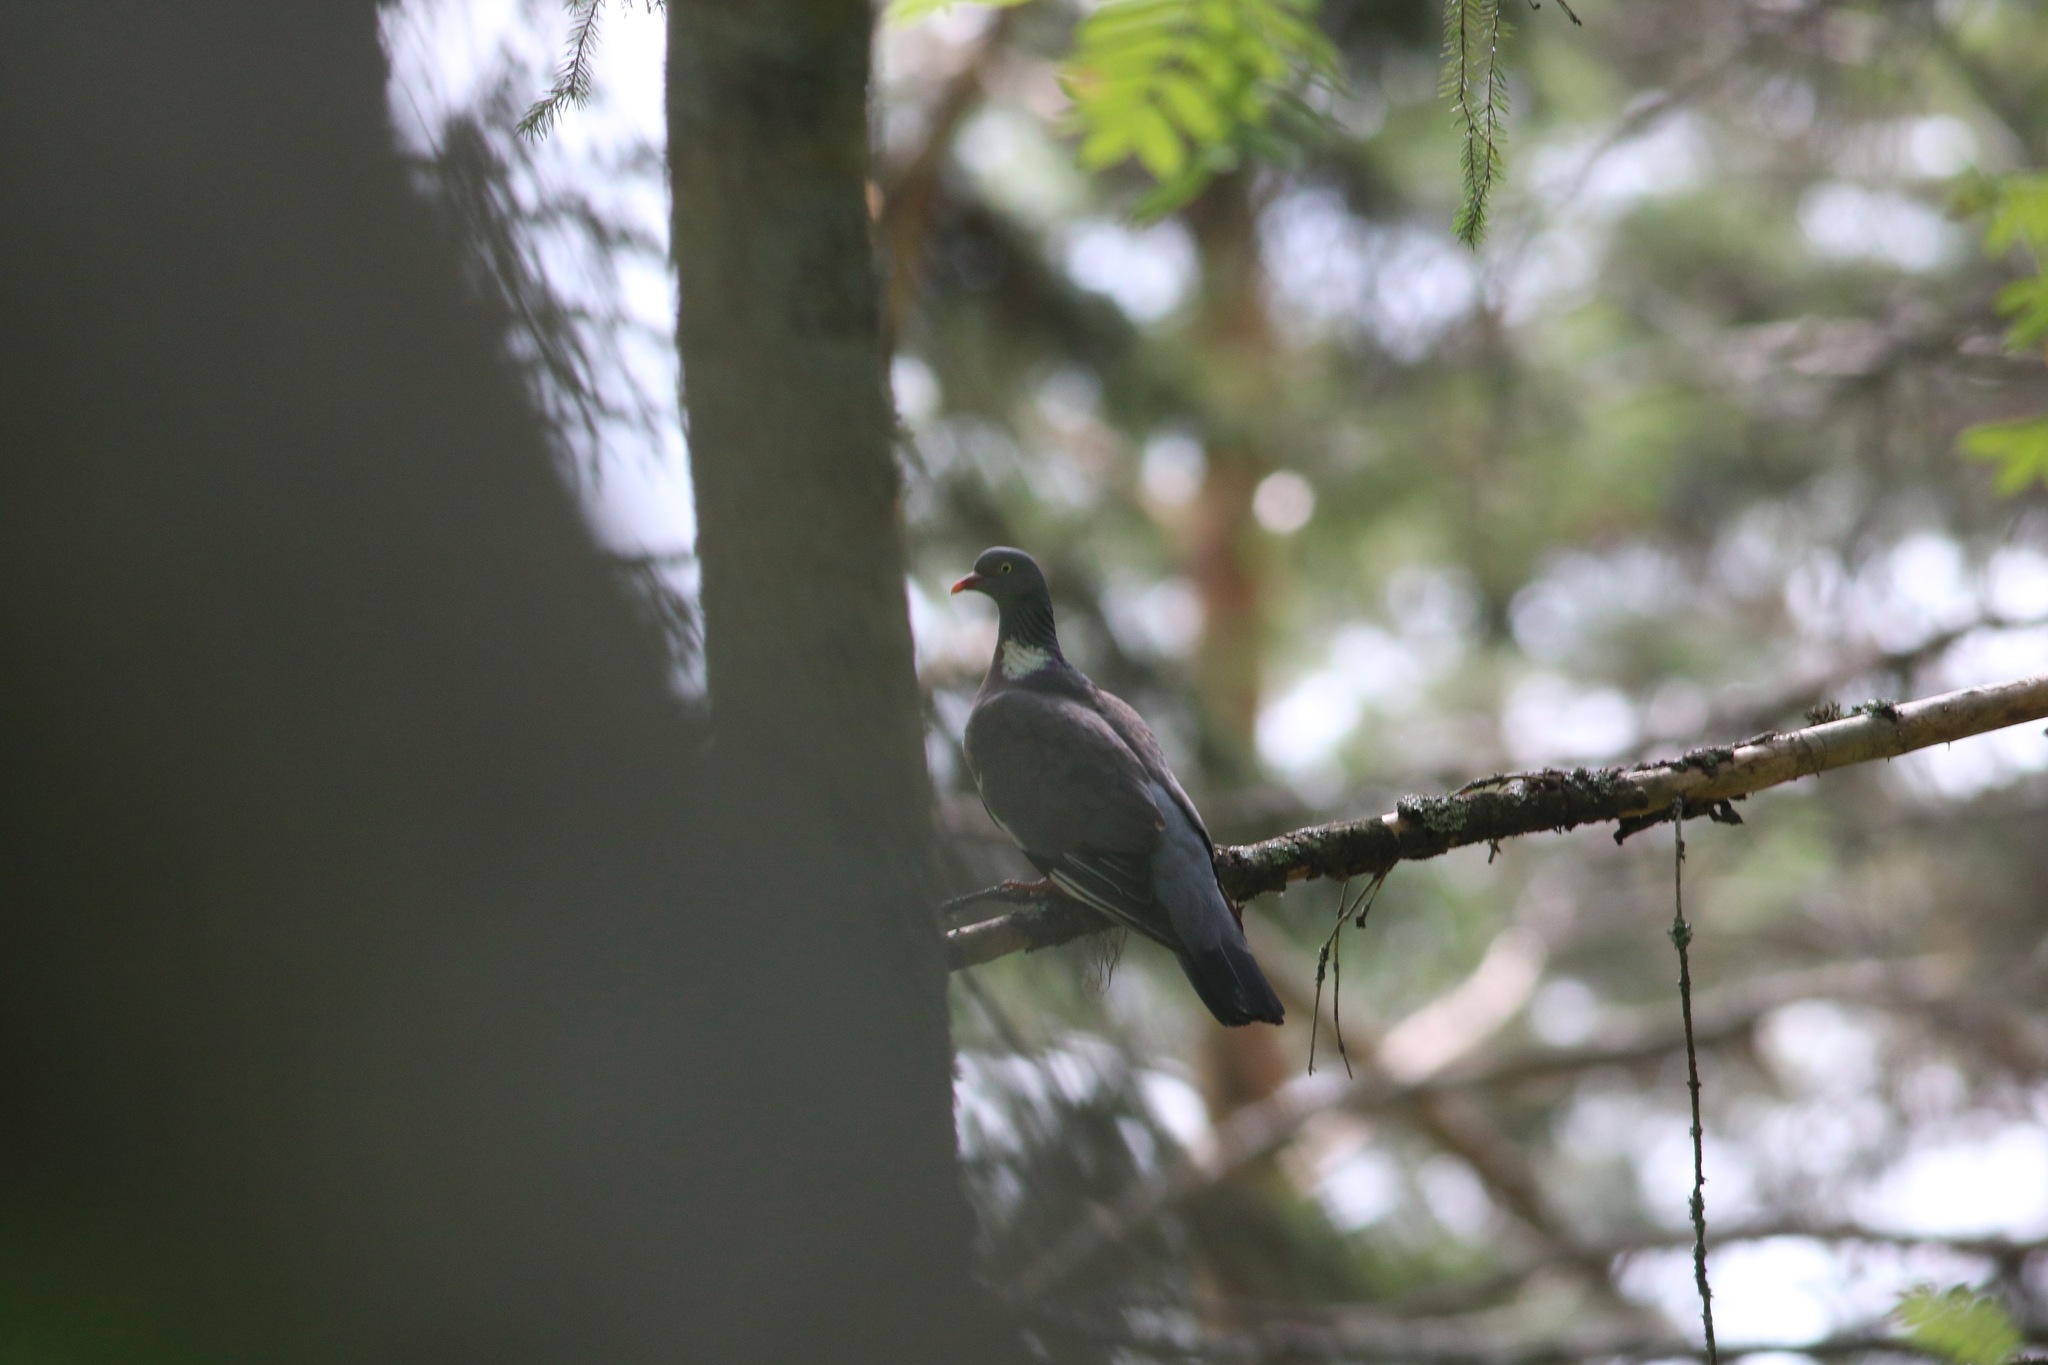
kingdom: Animalia
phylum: Chordata
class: Aves
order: Columbiformes
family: Columbidae
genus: Columba
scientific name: Columba palumbus
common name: Common wood pigeon
